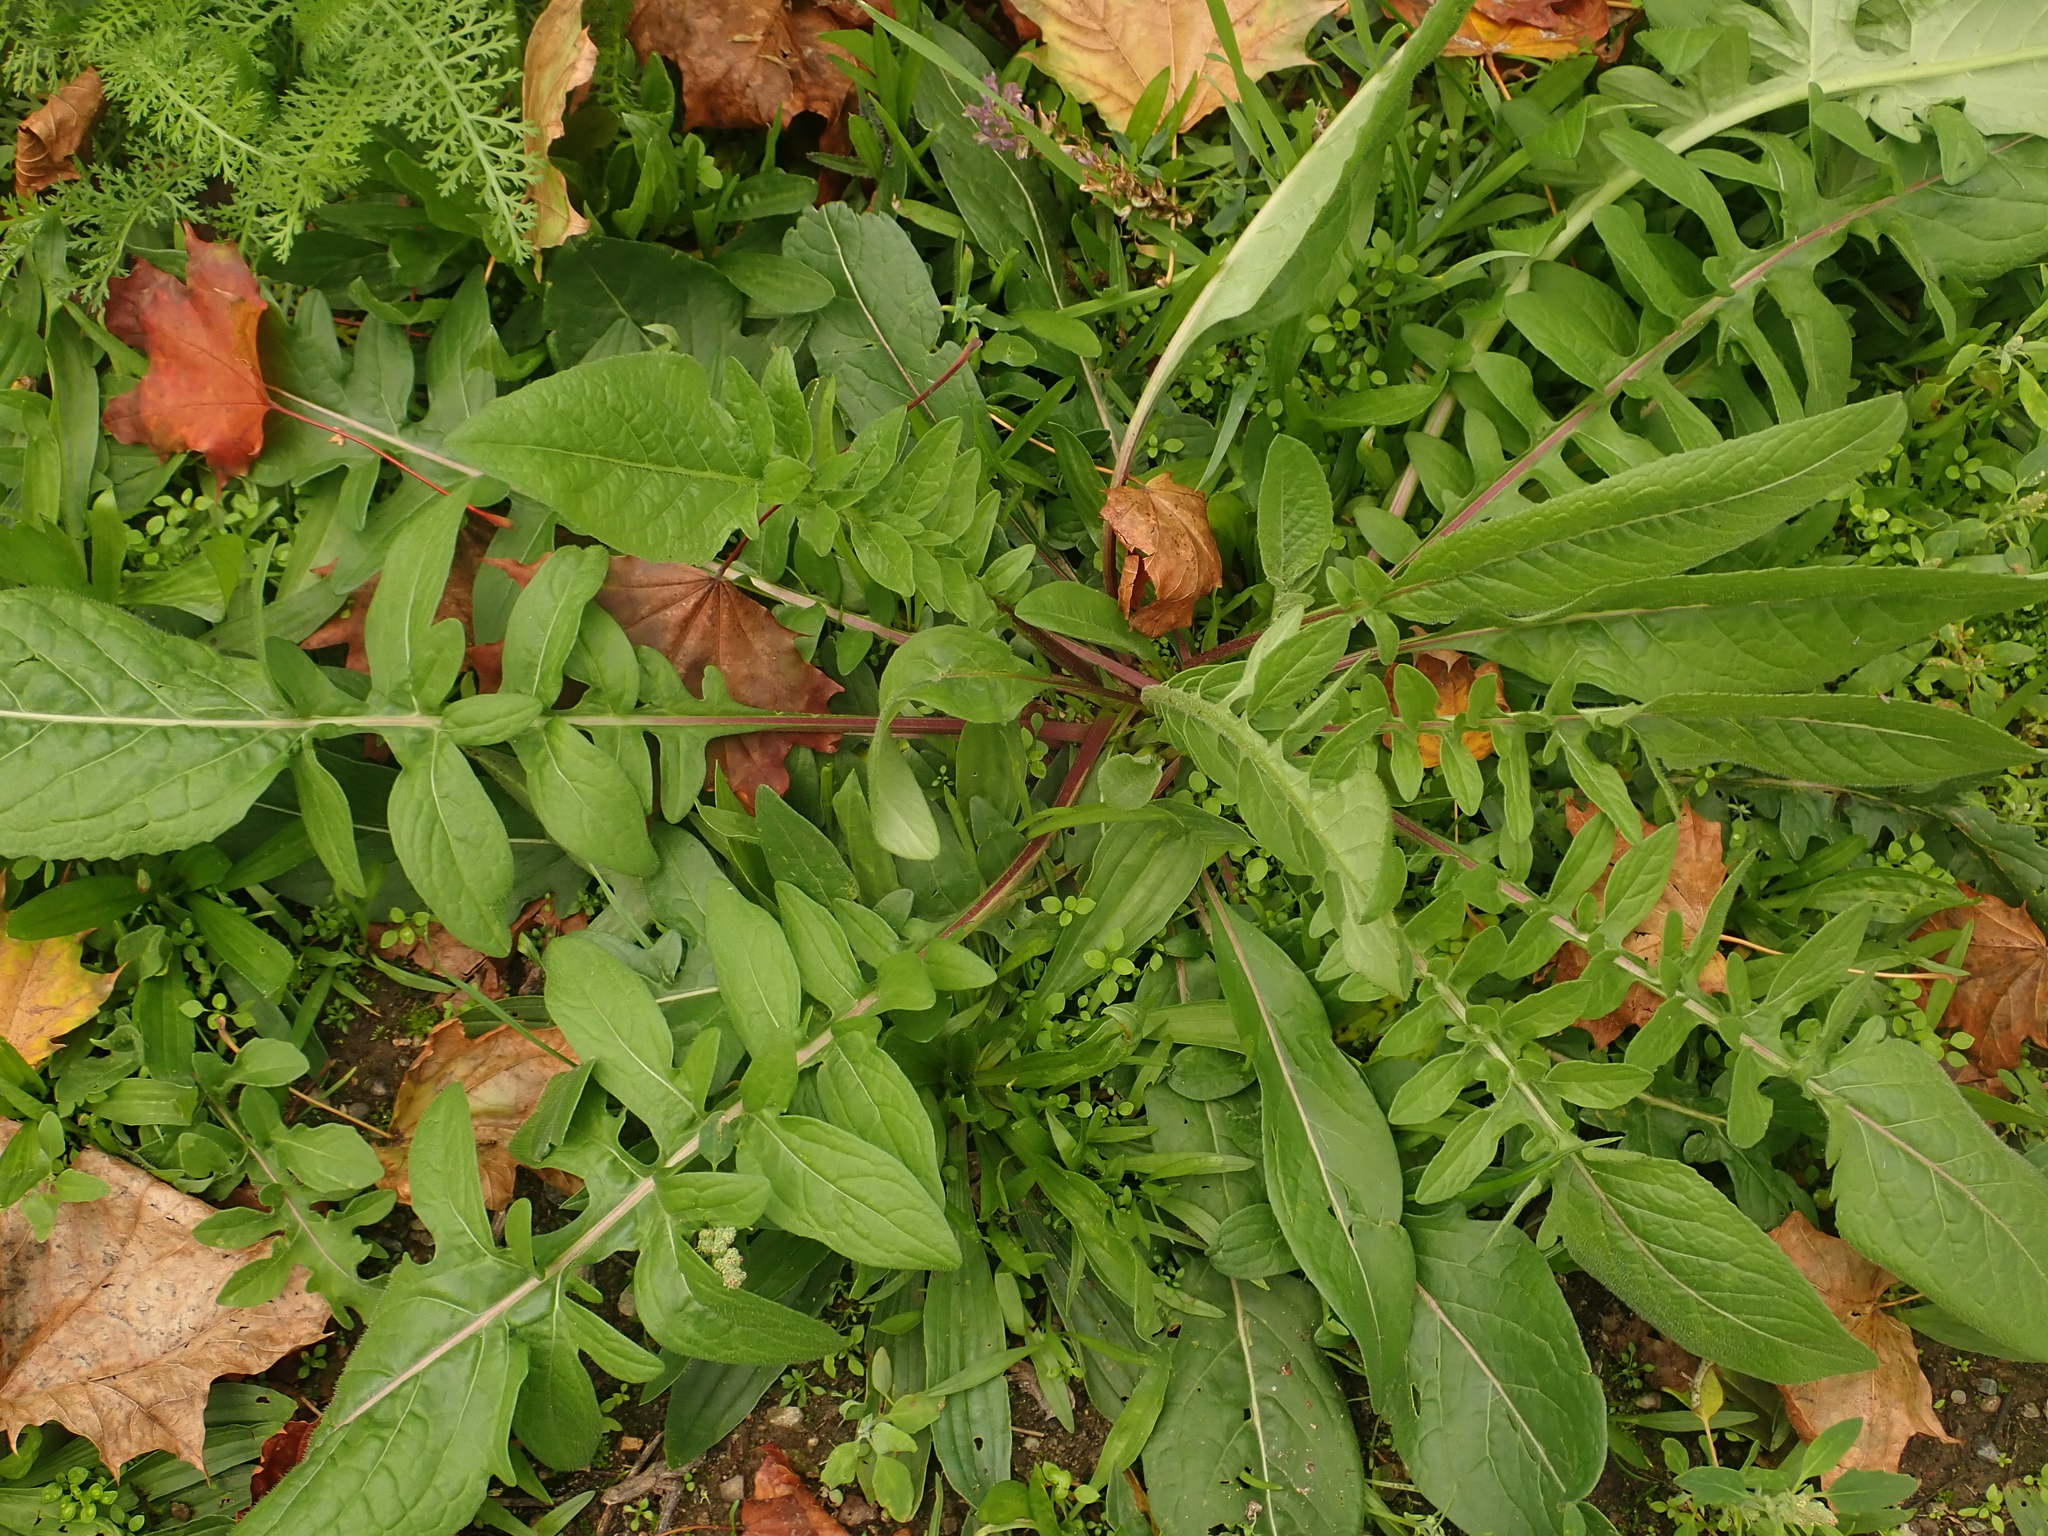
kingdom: Plantae
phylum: Tracheophyta
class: Magnoliopsida
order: Asterales
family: Asteraceae
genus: Centaurea
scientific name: Centaurea scabiosa
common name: Greater knapweed
